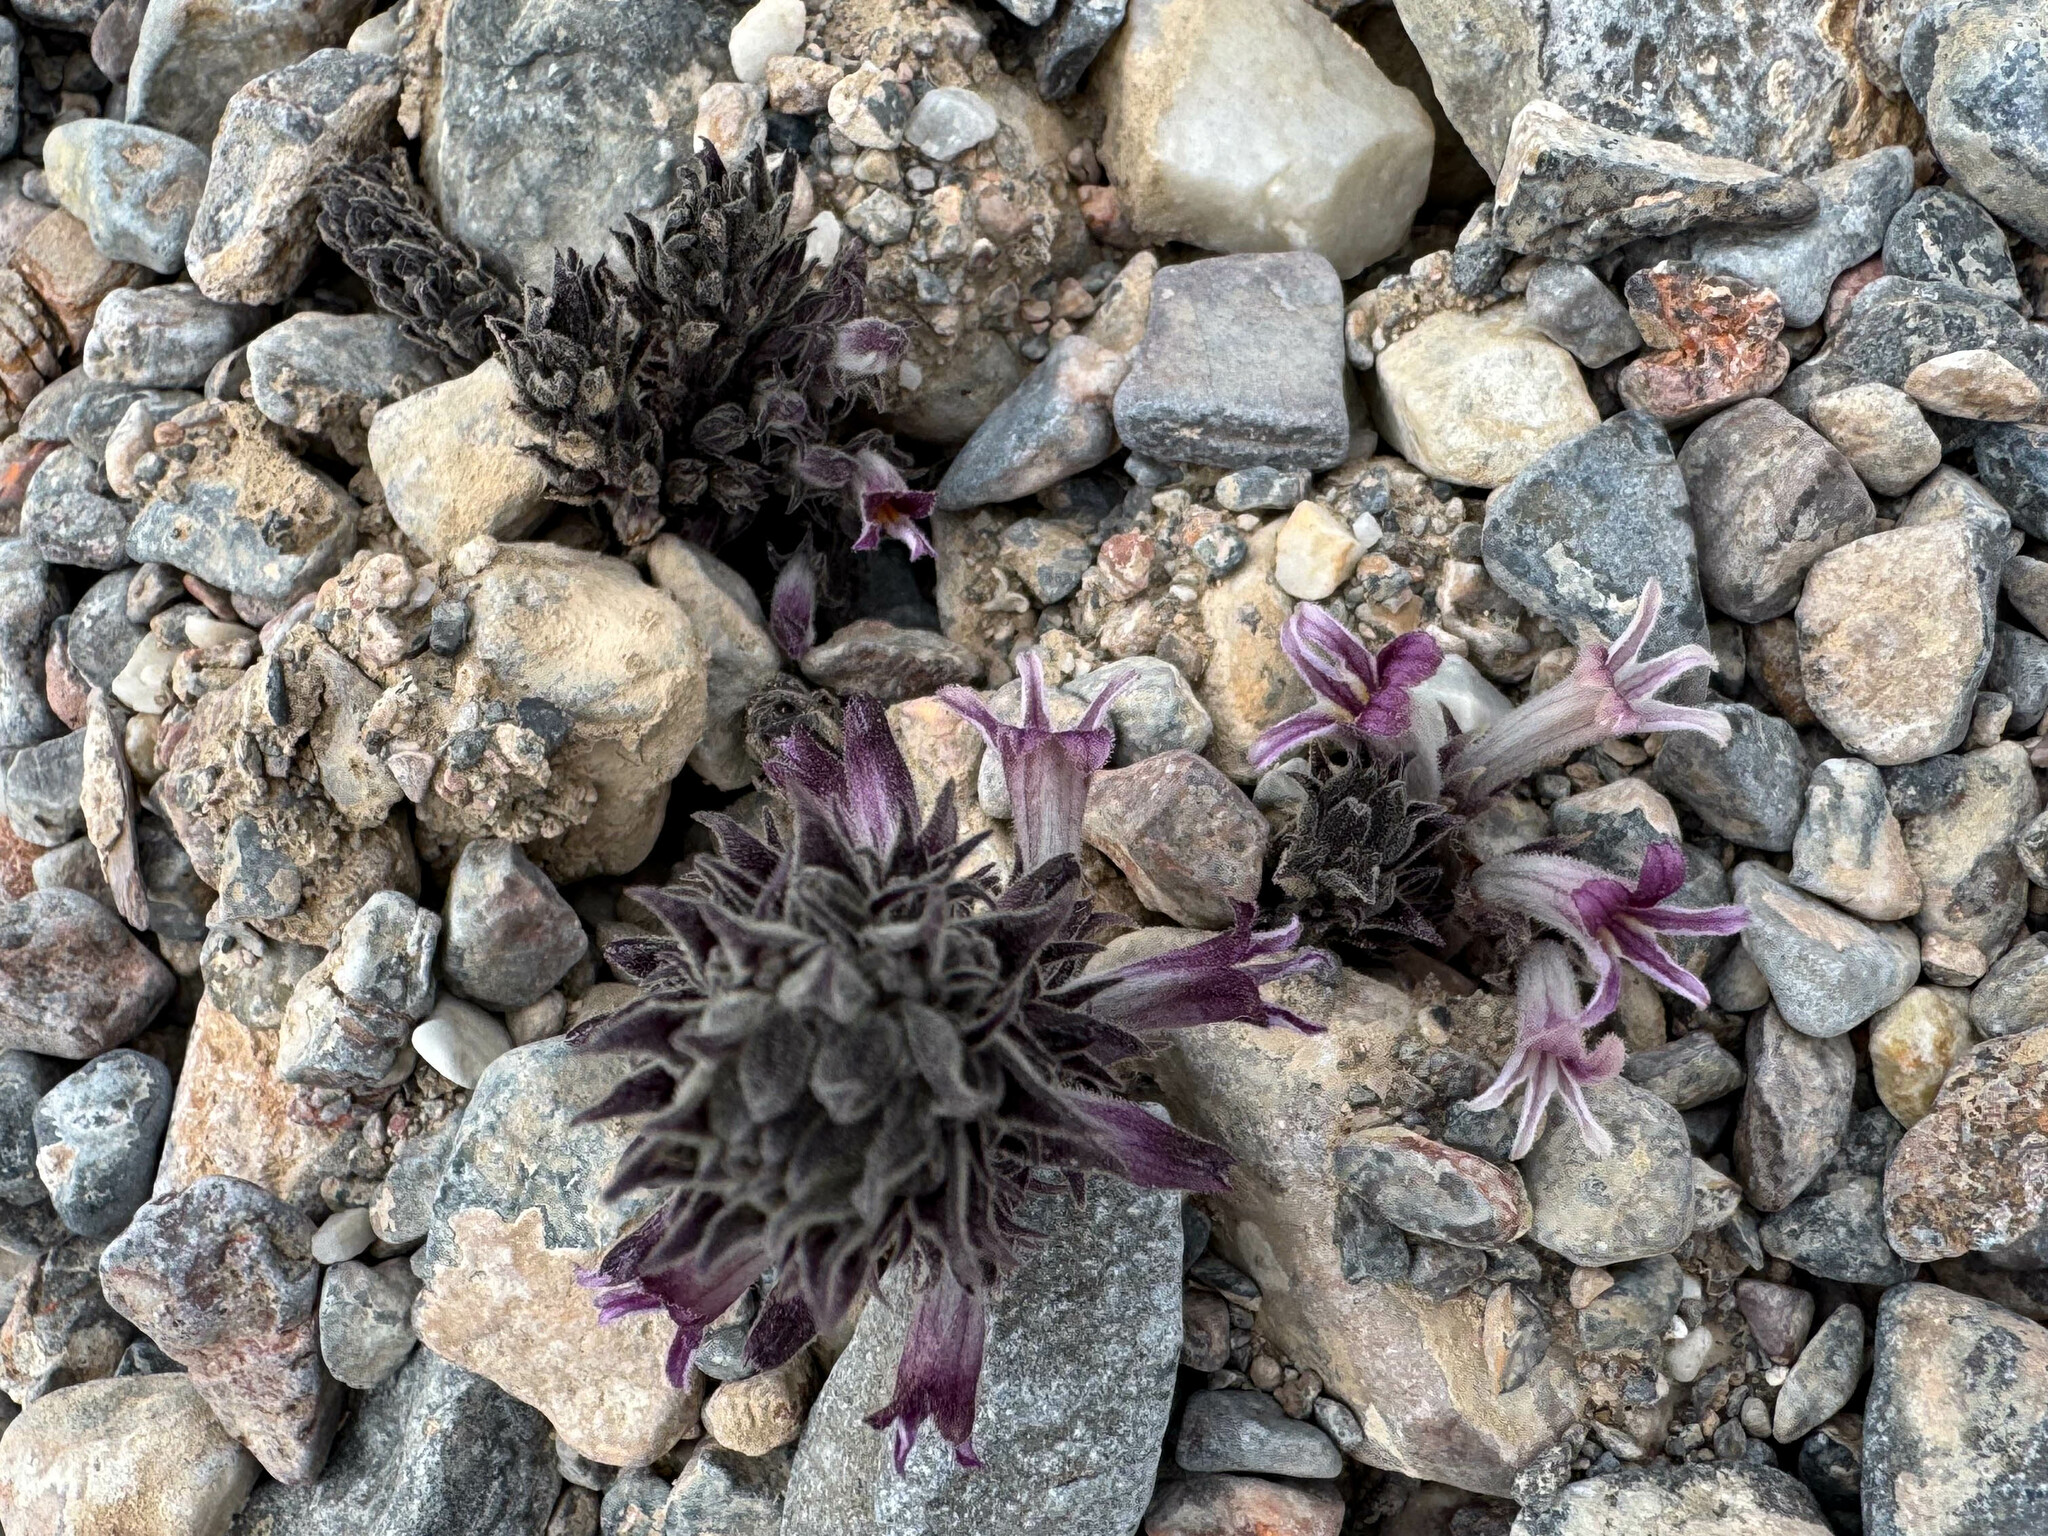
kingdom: Plantae
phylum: Tracheophyta
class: Magnoliopsida
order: Lamiales
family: Orobanchaceae
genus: Aphyllon
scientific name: Aphyllon cooperi
